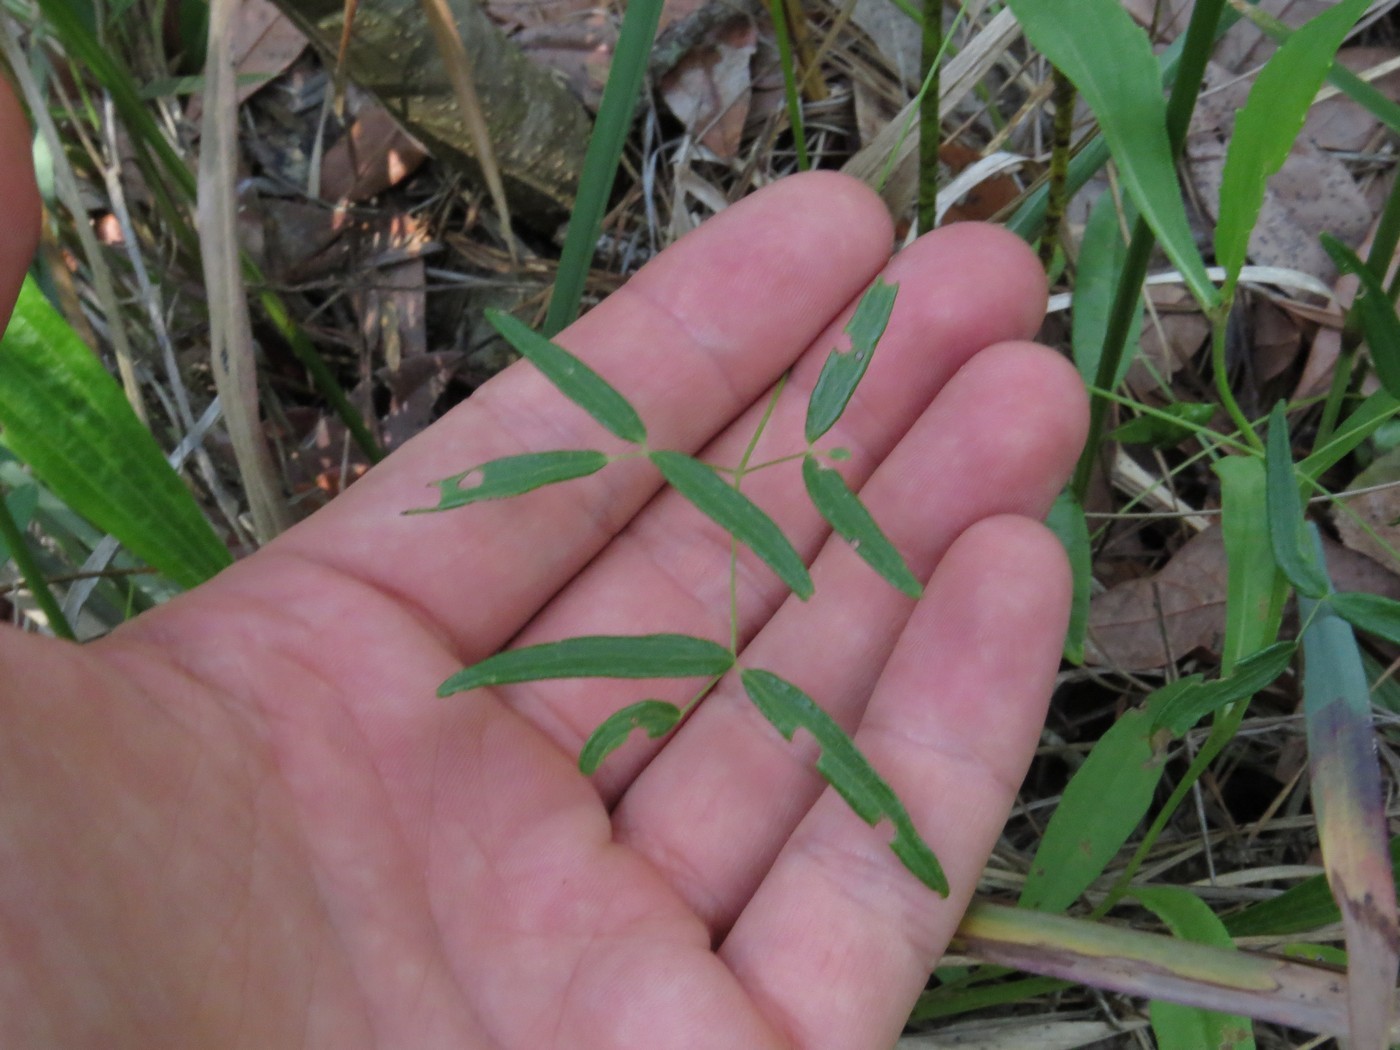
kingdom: Plantae
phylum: Tracheophyta
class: Magnoliopsida
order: Ranunculales
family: Ranunculaceae
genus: Thalictrum
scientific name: Thalictrum cooleyi
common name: Cooley's meadow-rue
